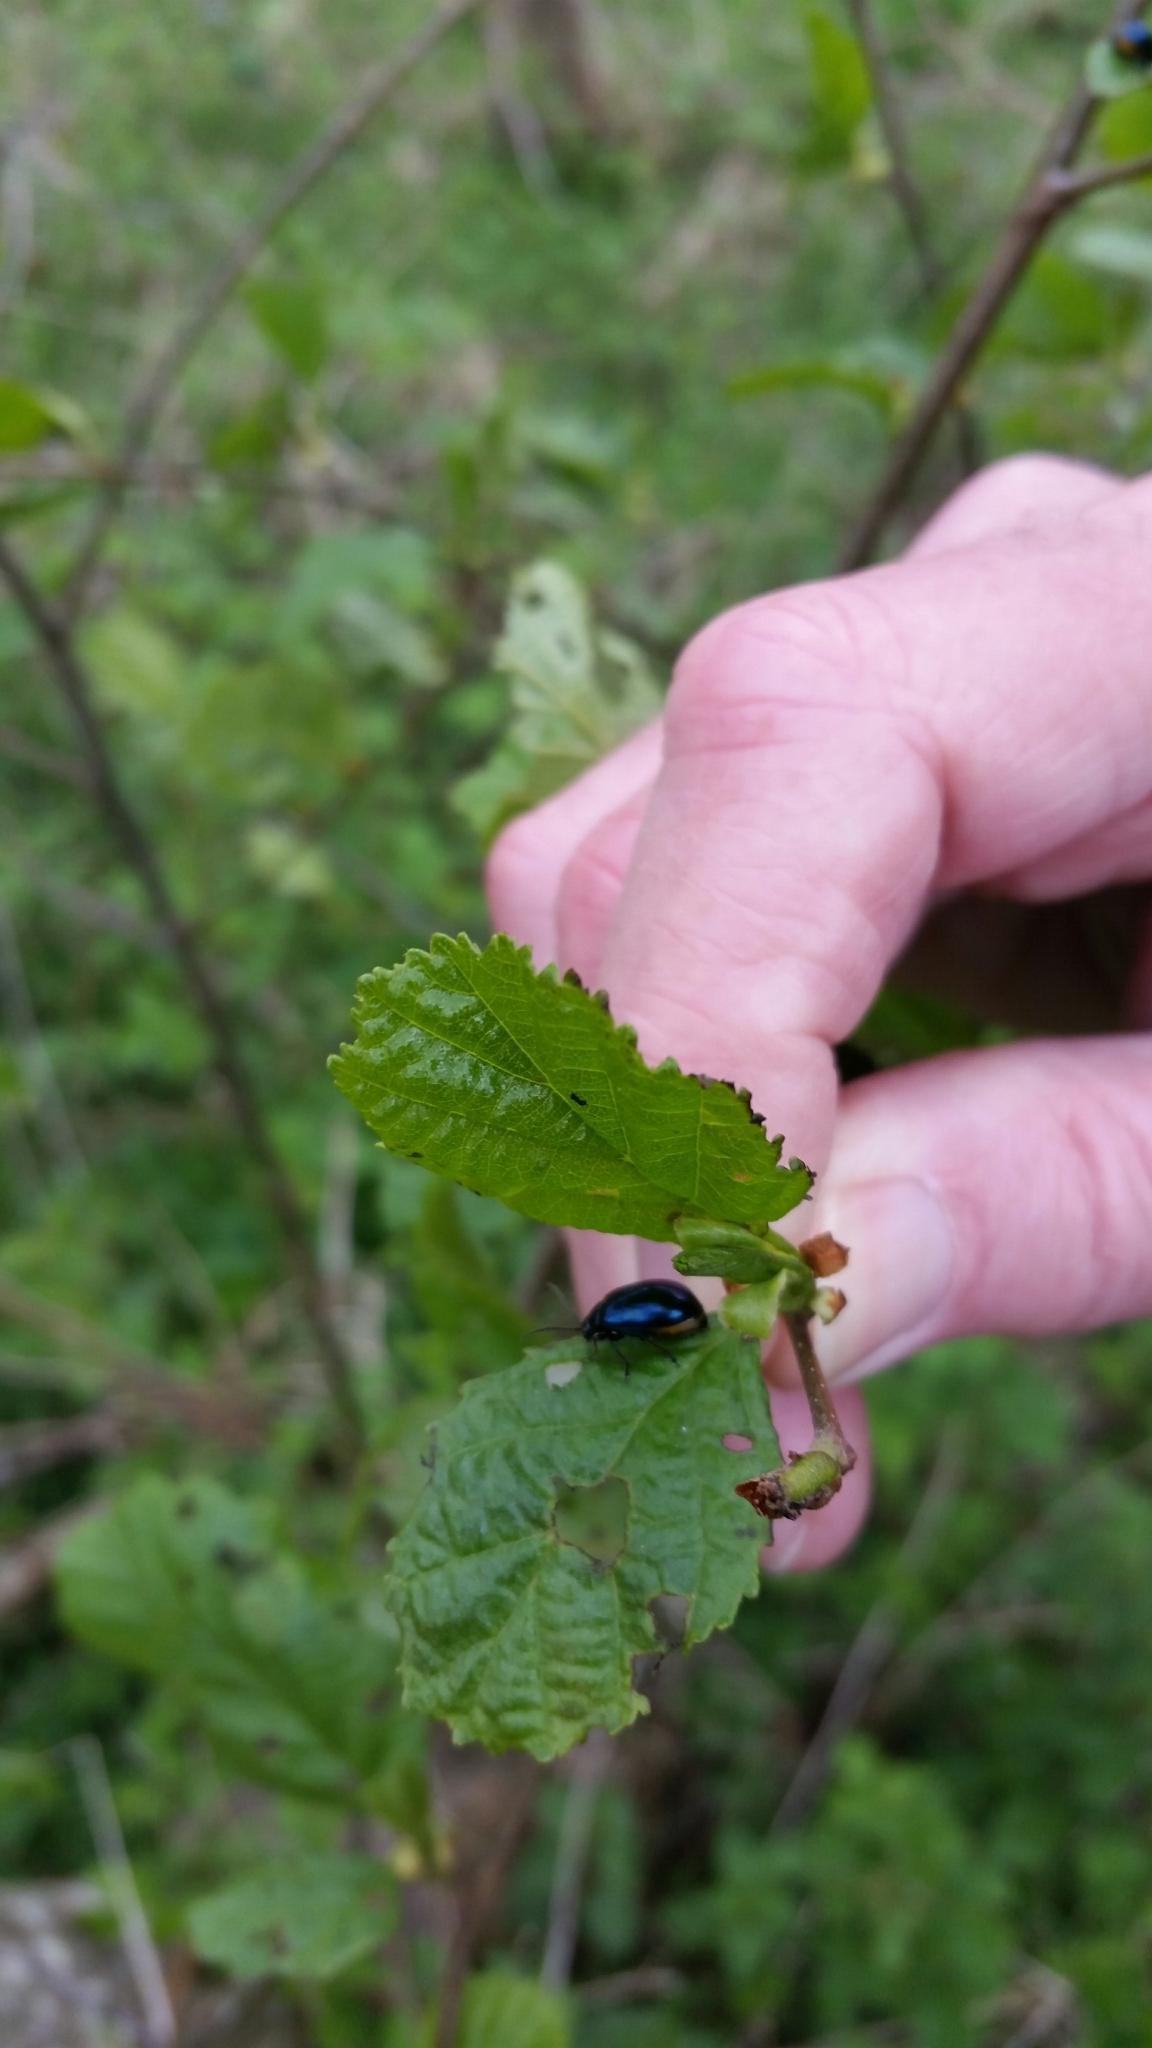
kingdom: Animalia
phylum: Arthropoda
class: Insecta
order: Coleoptera
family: Chrysomelidae
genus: Agelastica
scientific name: Agelastica alni
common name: Alder leaf beetle
